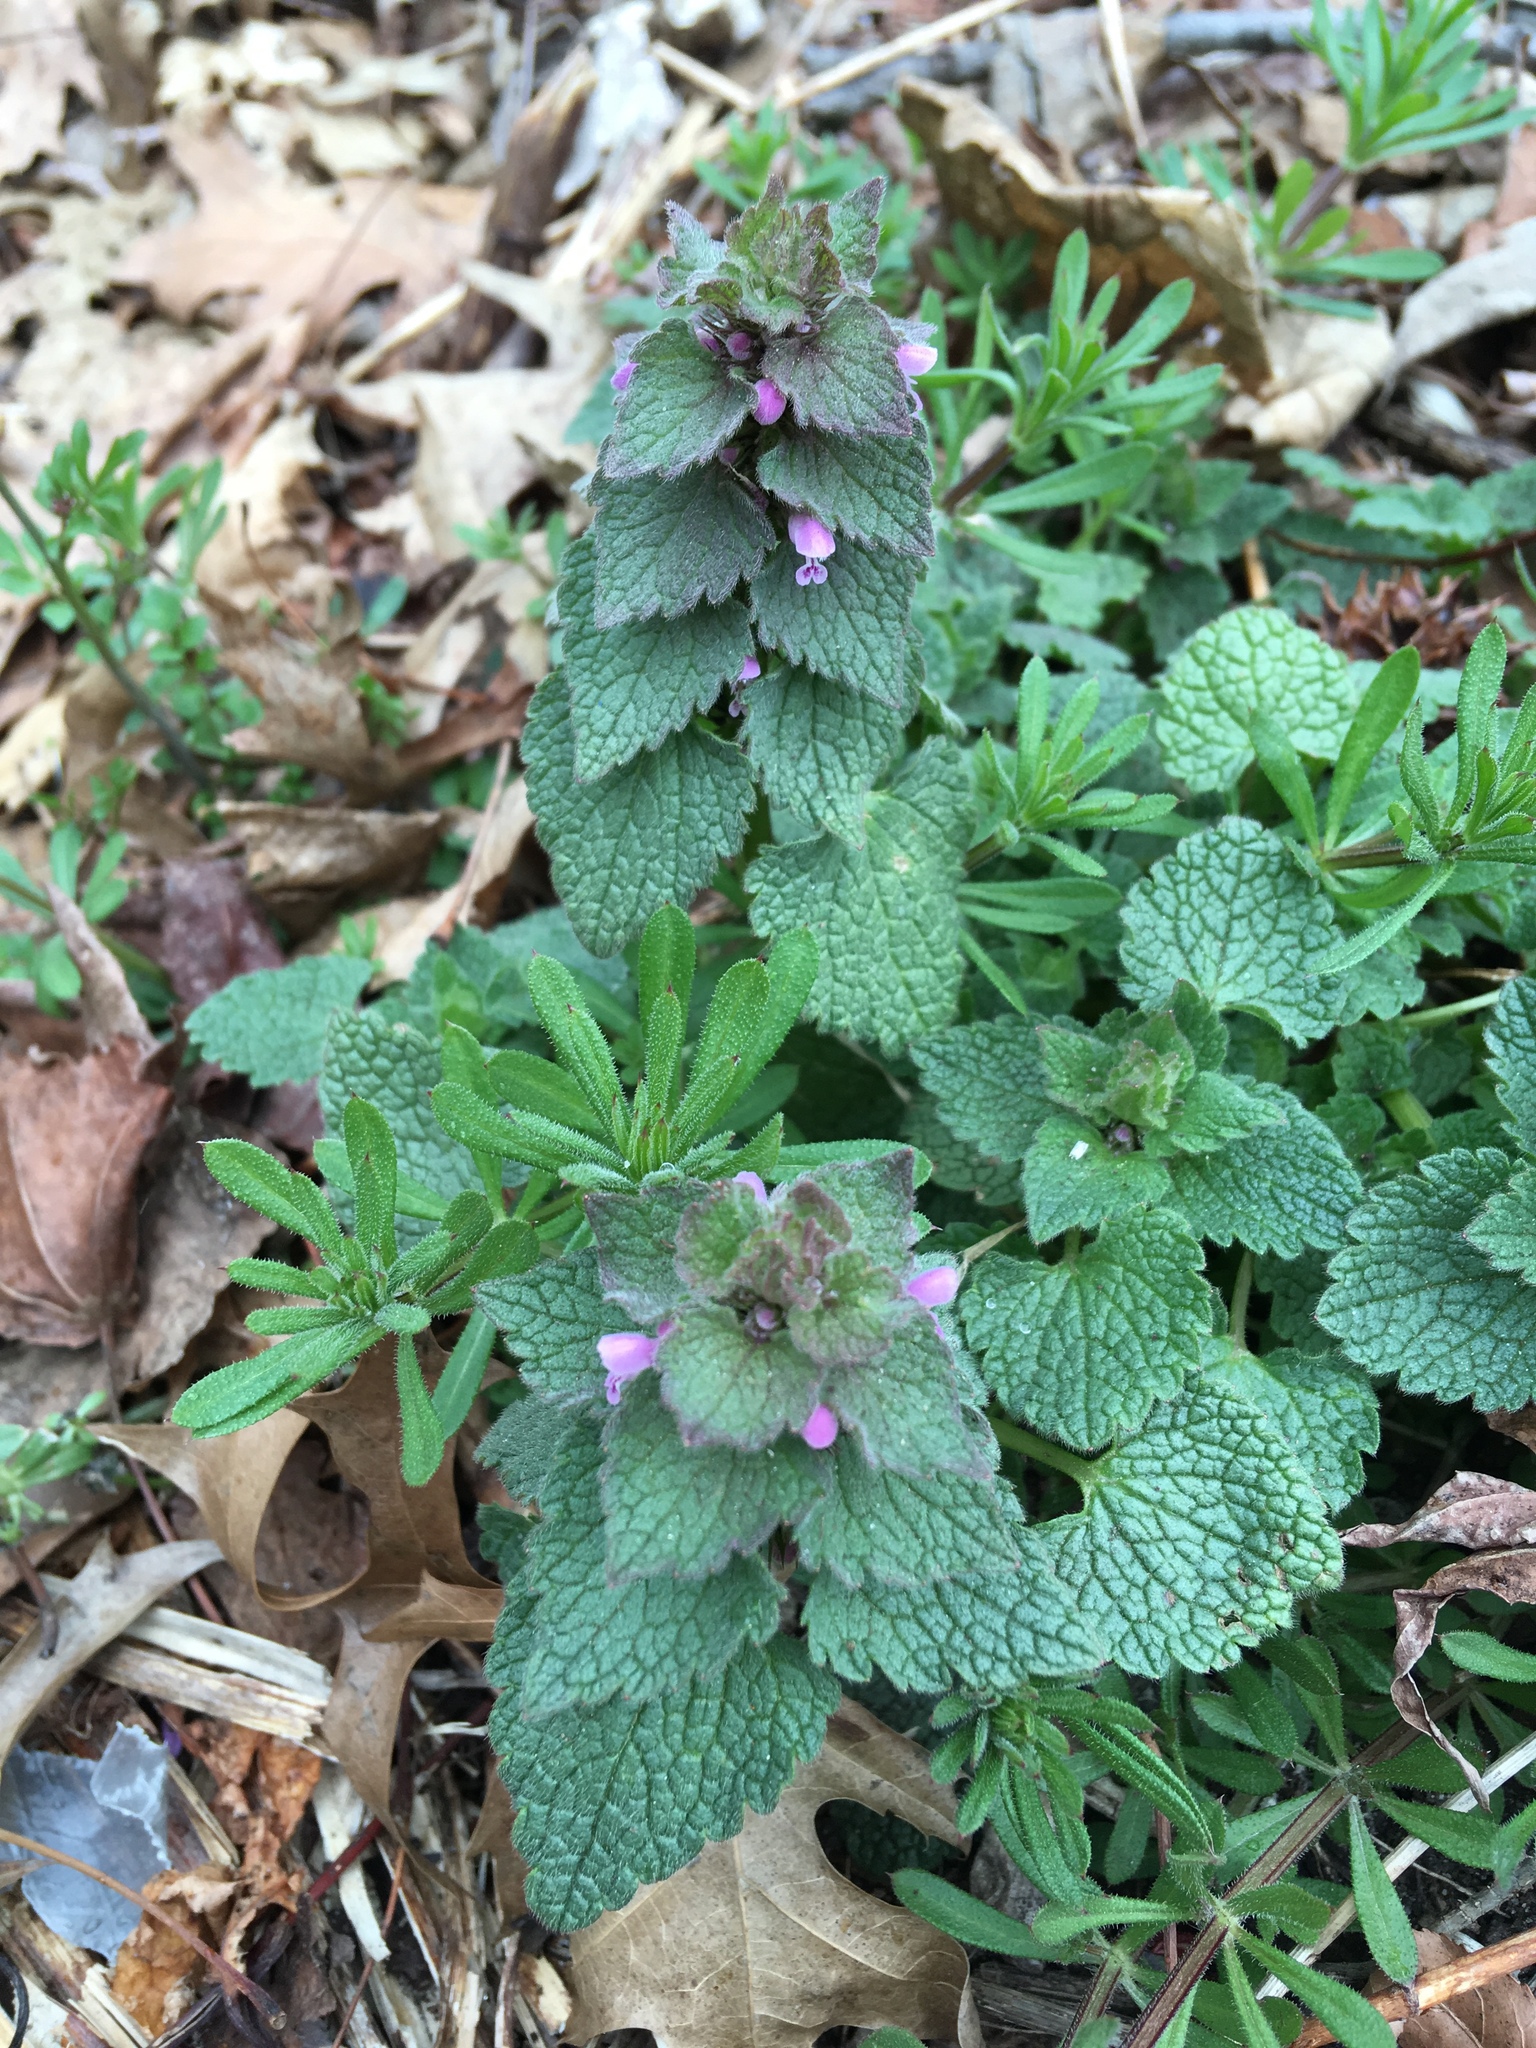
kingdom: Plantae
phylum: Tracheophyta
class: Magnoliopsida
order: Lamiales
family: Lamiaceae
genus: Lamium
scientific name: Lamium purpureum
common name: Red dead-nettle
